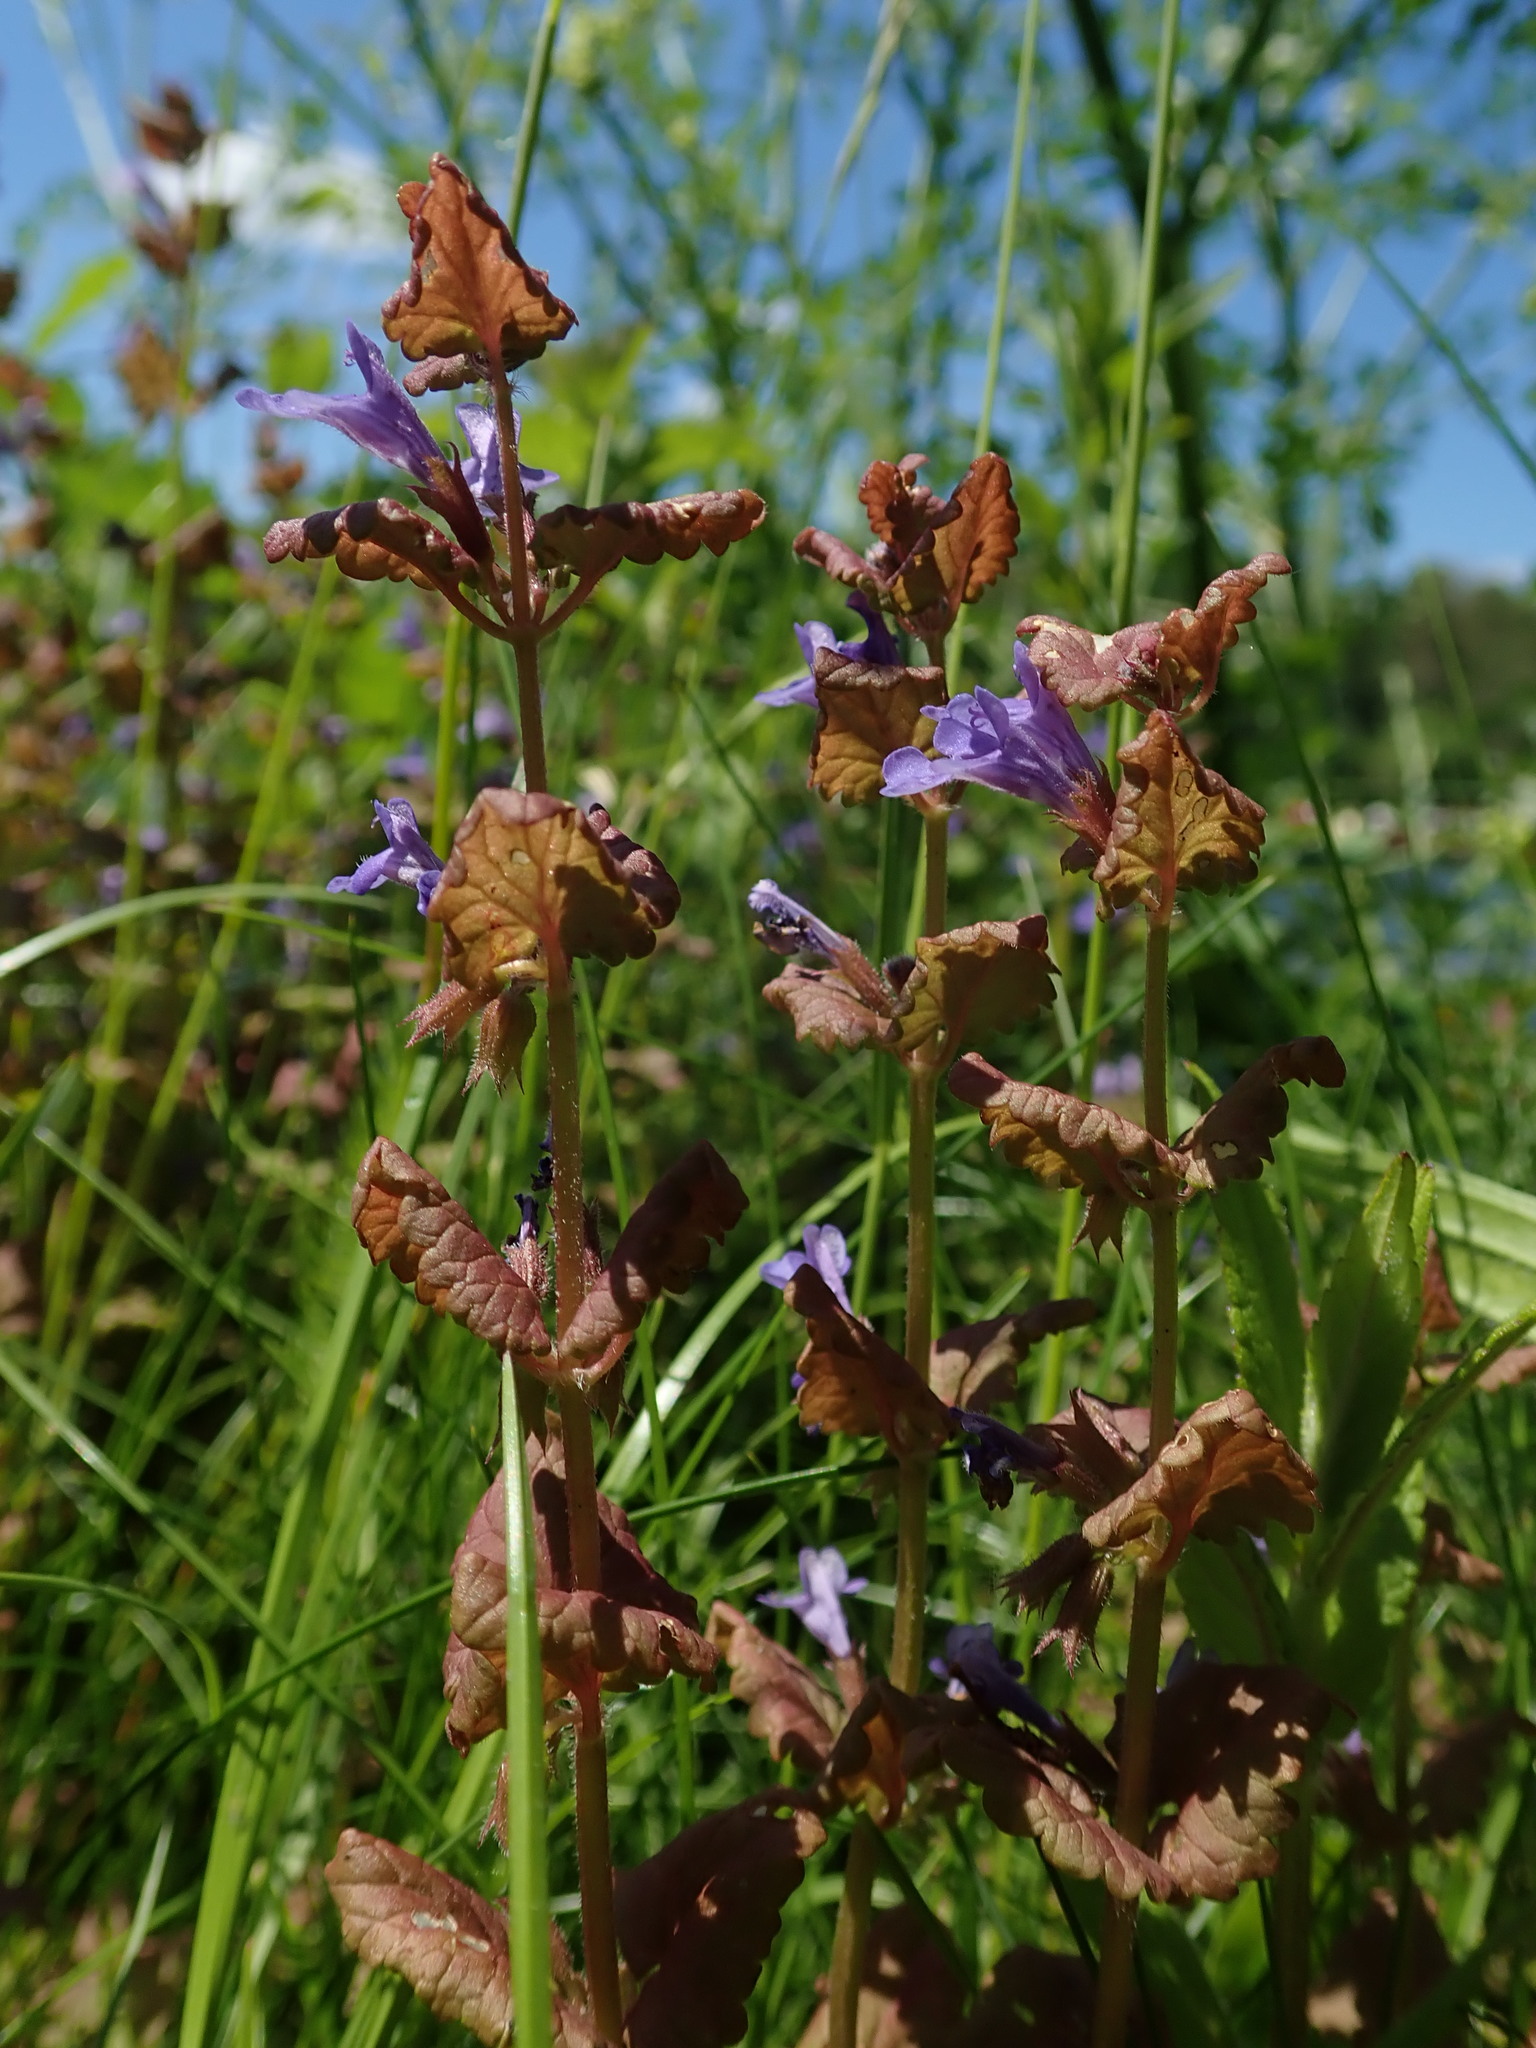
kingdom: Plantae
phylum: Tracheophyta
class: Magnoliopsida
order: Lamiales
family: Lamiaceae
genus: Glechoma
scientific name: Glechoma hederacea
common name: Ground ivy
